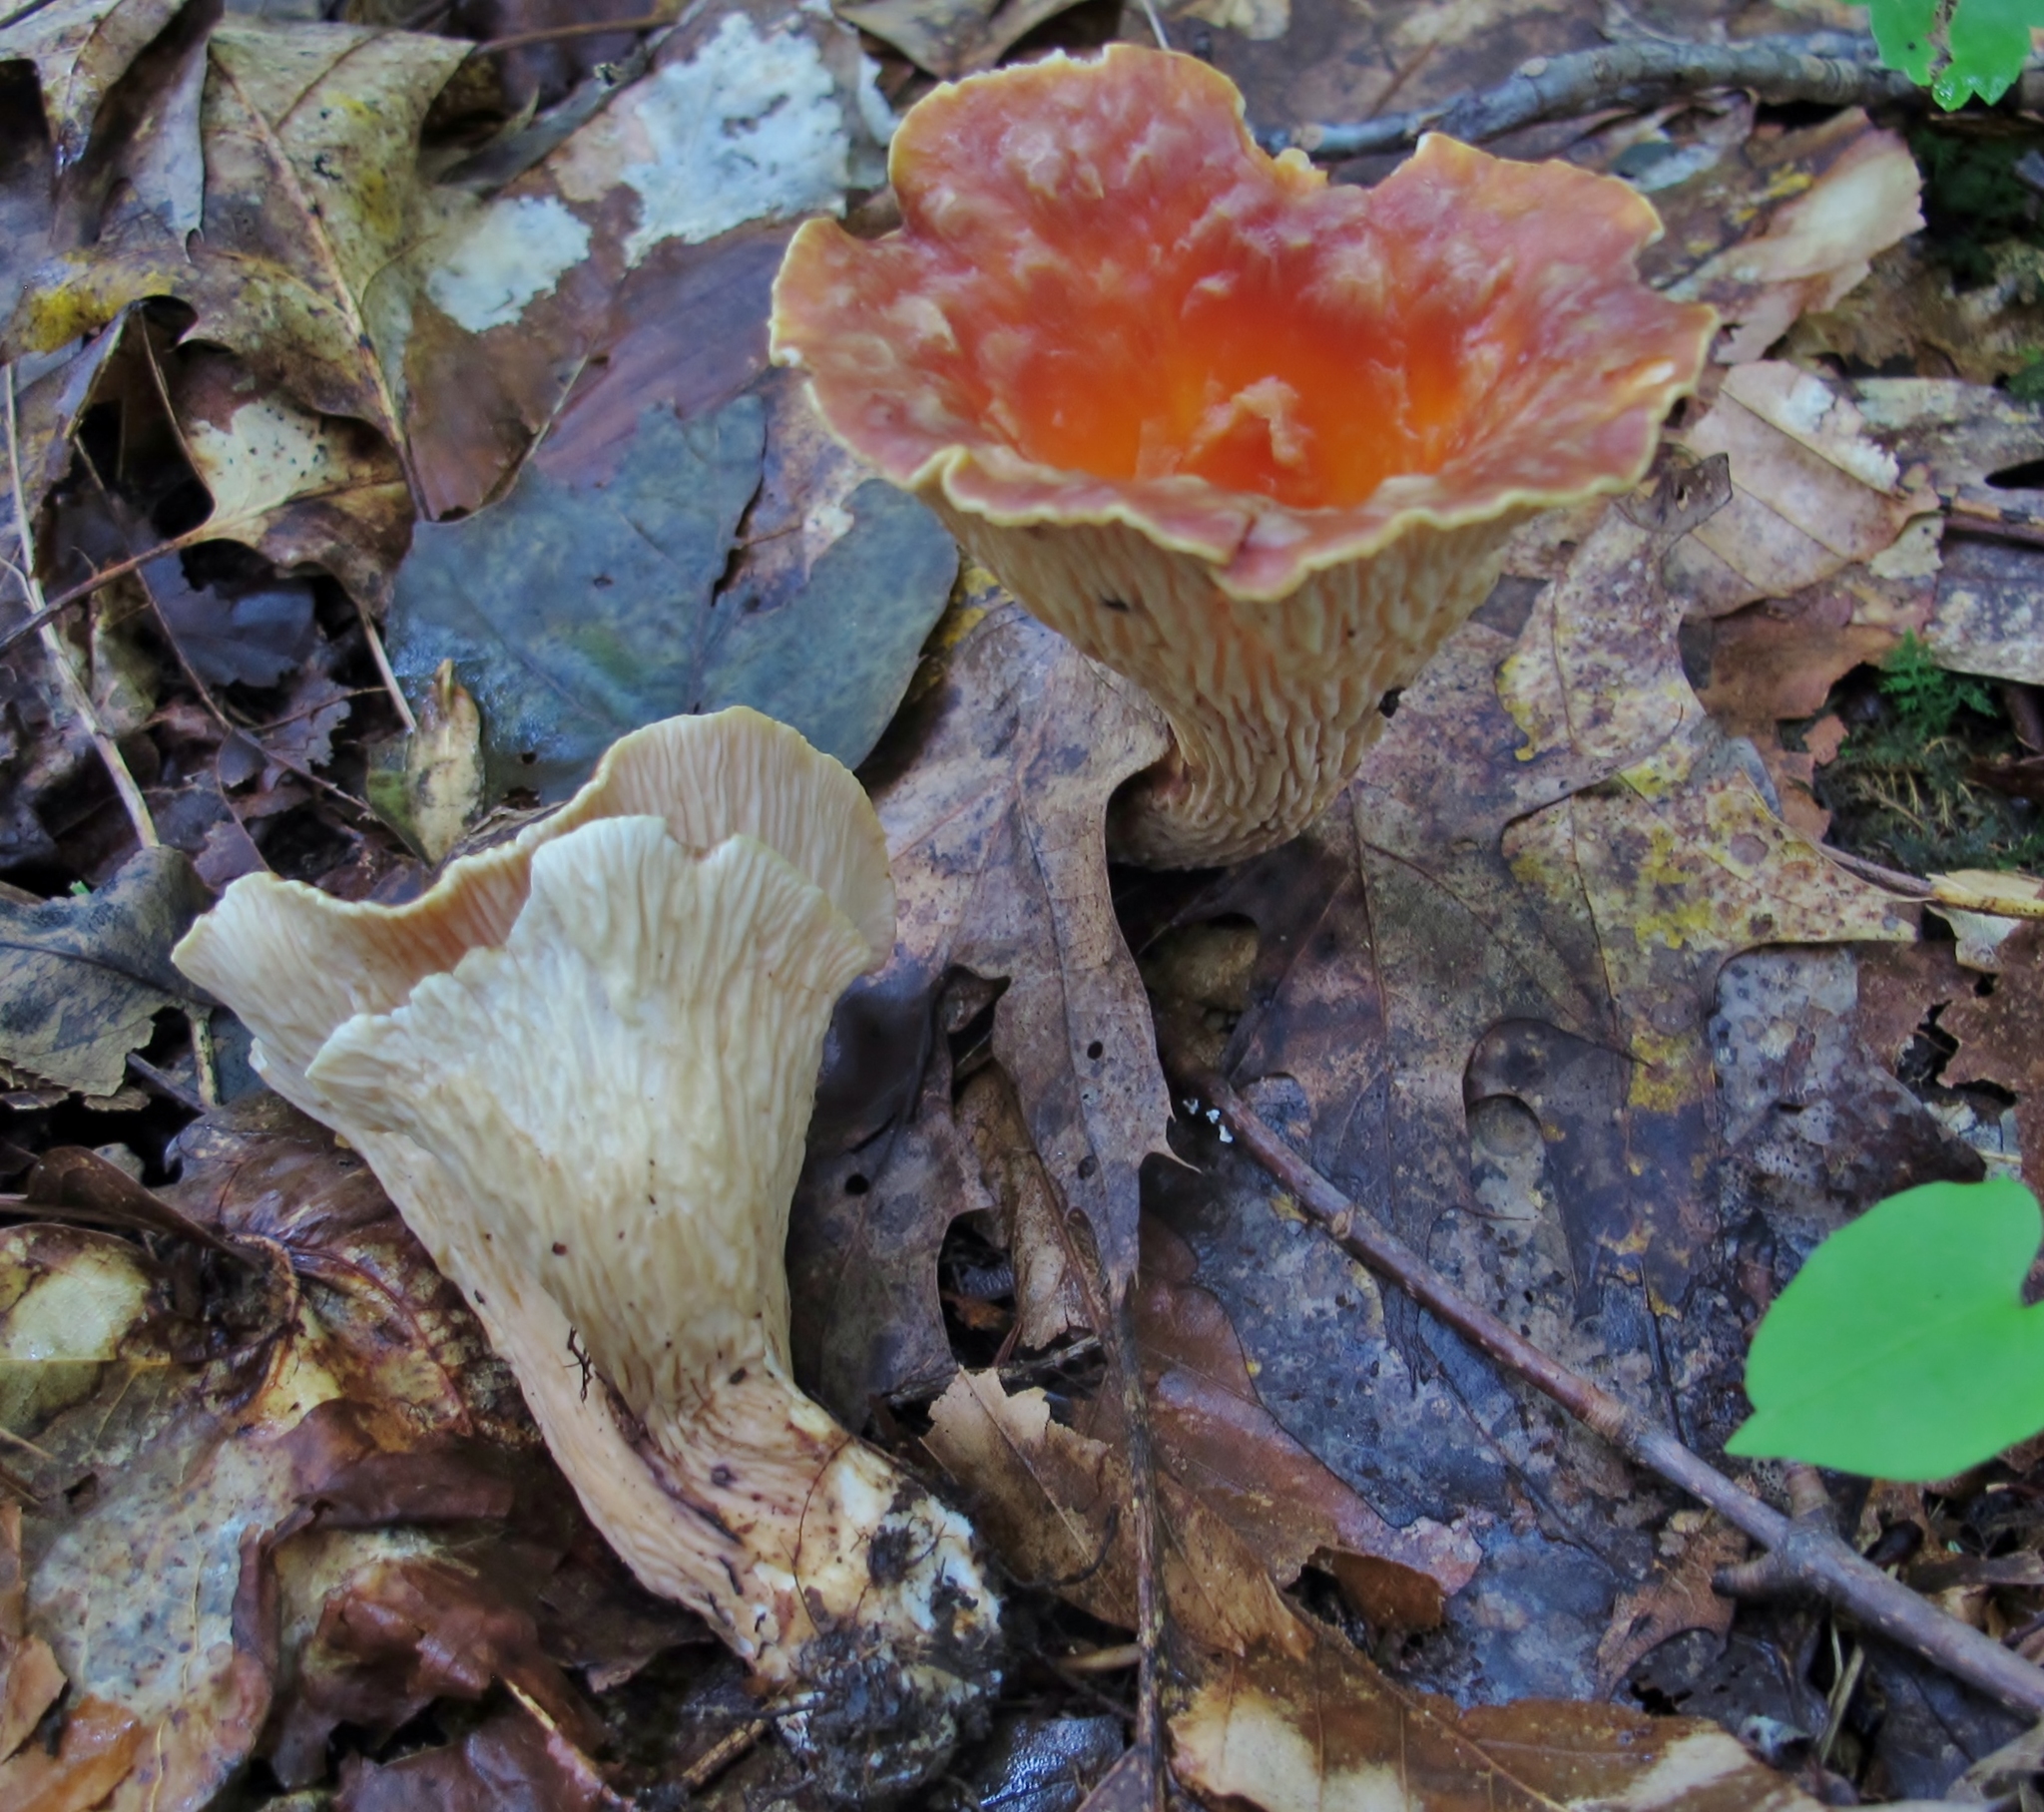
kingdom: Fungi
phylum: Basidiomycota
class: Agaricomycetes
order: Gomphales
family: Gomphaceae
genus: Turbinellus
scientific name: Turbinellus floccosus
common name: Scaly chanterelle
